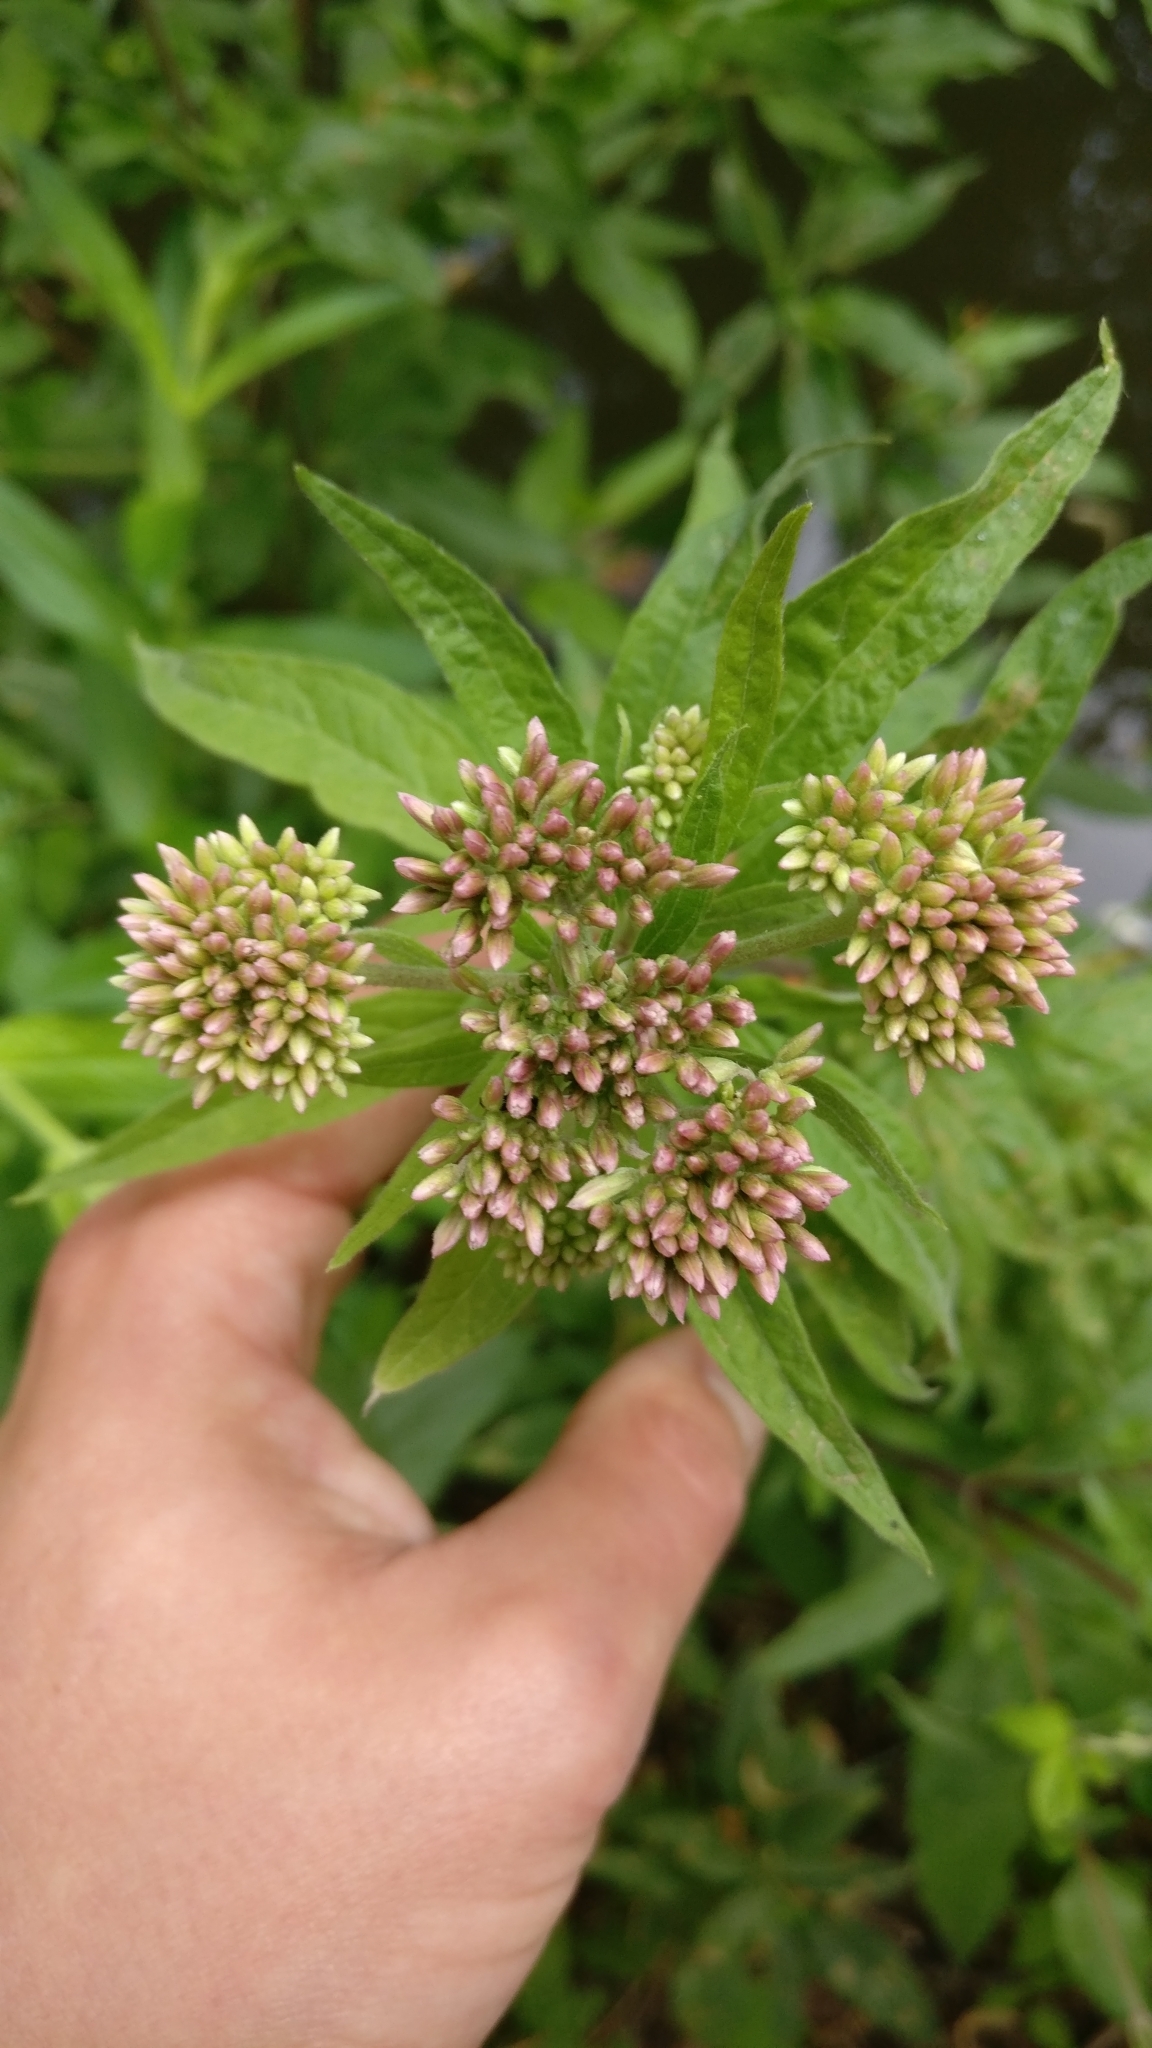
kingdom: Plantae
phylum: Tracheophyta
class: Magnoliopsida
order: Asterales
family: Asteraceae
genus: Eupatorium
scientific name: Eupatorium cannabinum
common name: Hemp-agrimony
